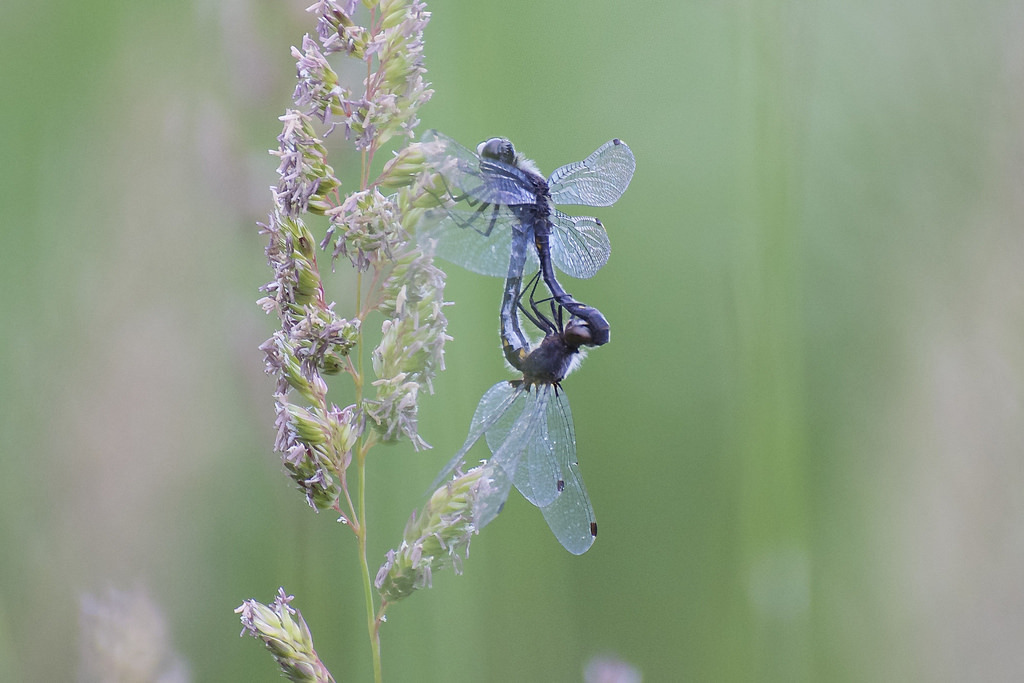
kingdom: Animalia
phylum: Arthropoda
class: Insecta
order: Odonata
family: Libellulidae
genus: Leucorrhinia
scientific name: Leucorrhinia intacta
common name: Dot-tailed whiteface
